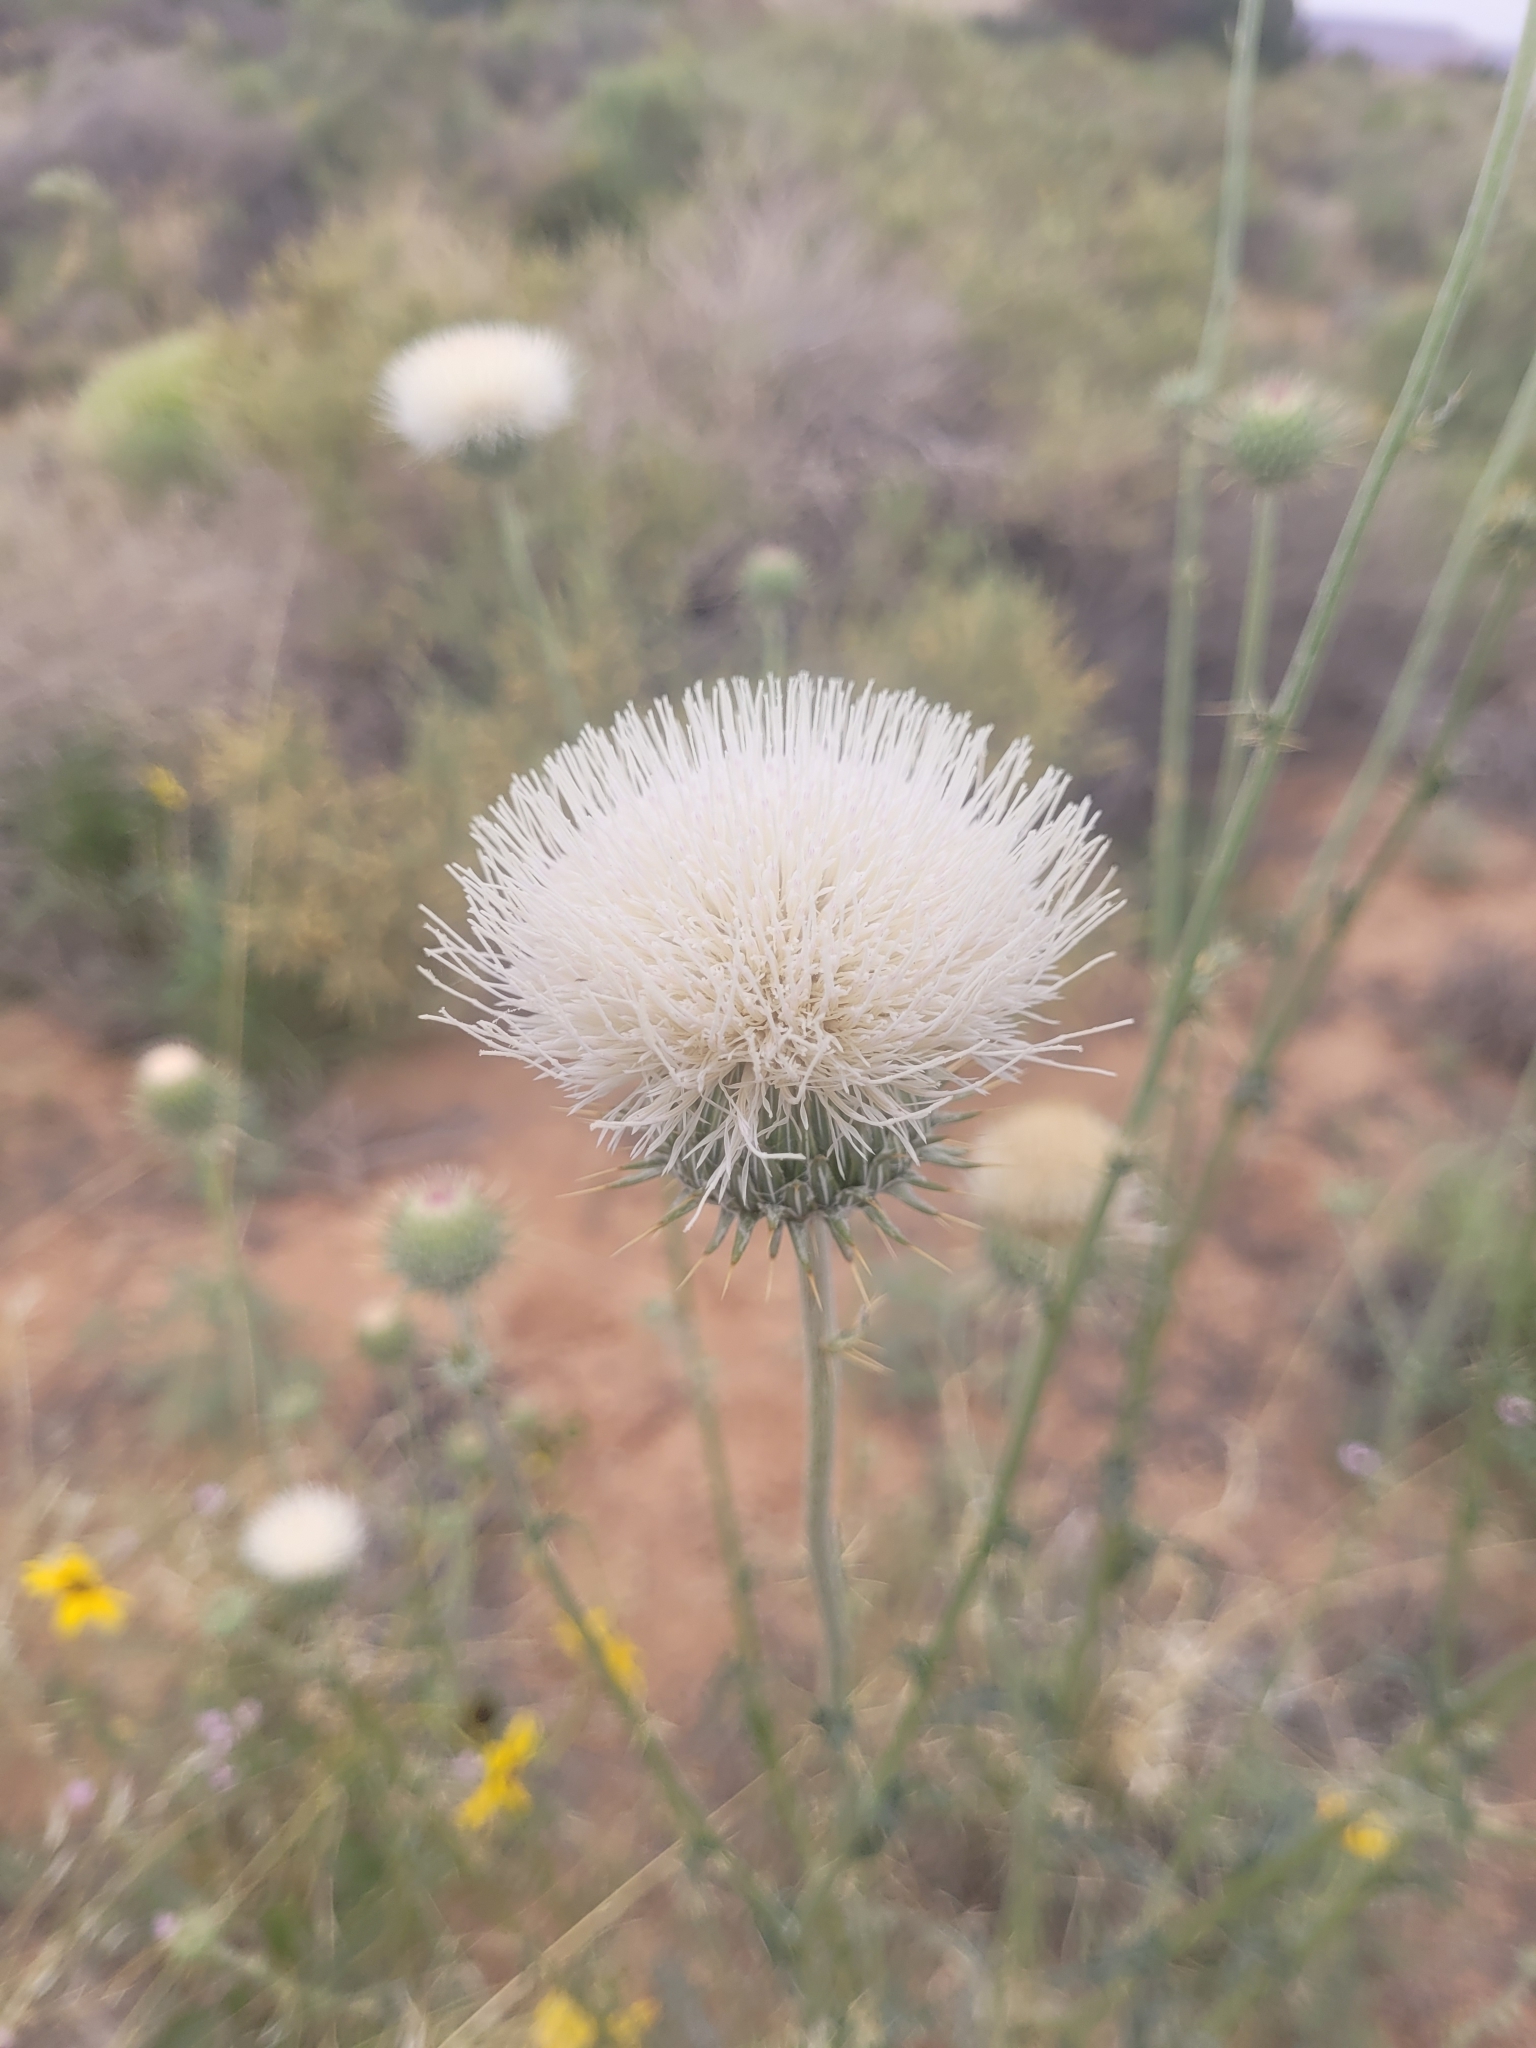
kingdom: Plantae
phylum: Tracheophyta
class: Magnoliopsida
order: Asterales
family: Asteraceae
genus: Cirsium
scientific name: Cirsium neomexicanum
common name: New mexico thistle
